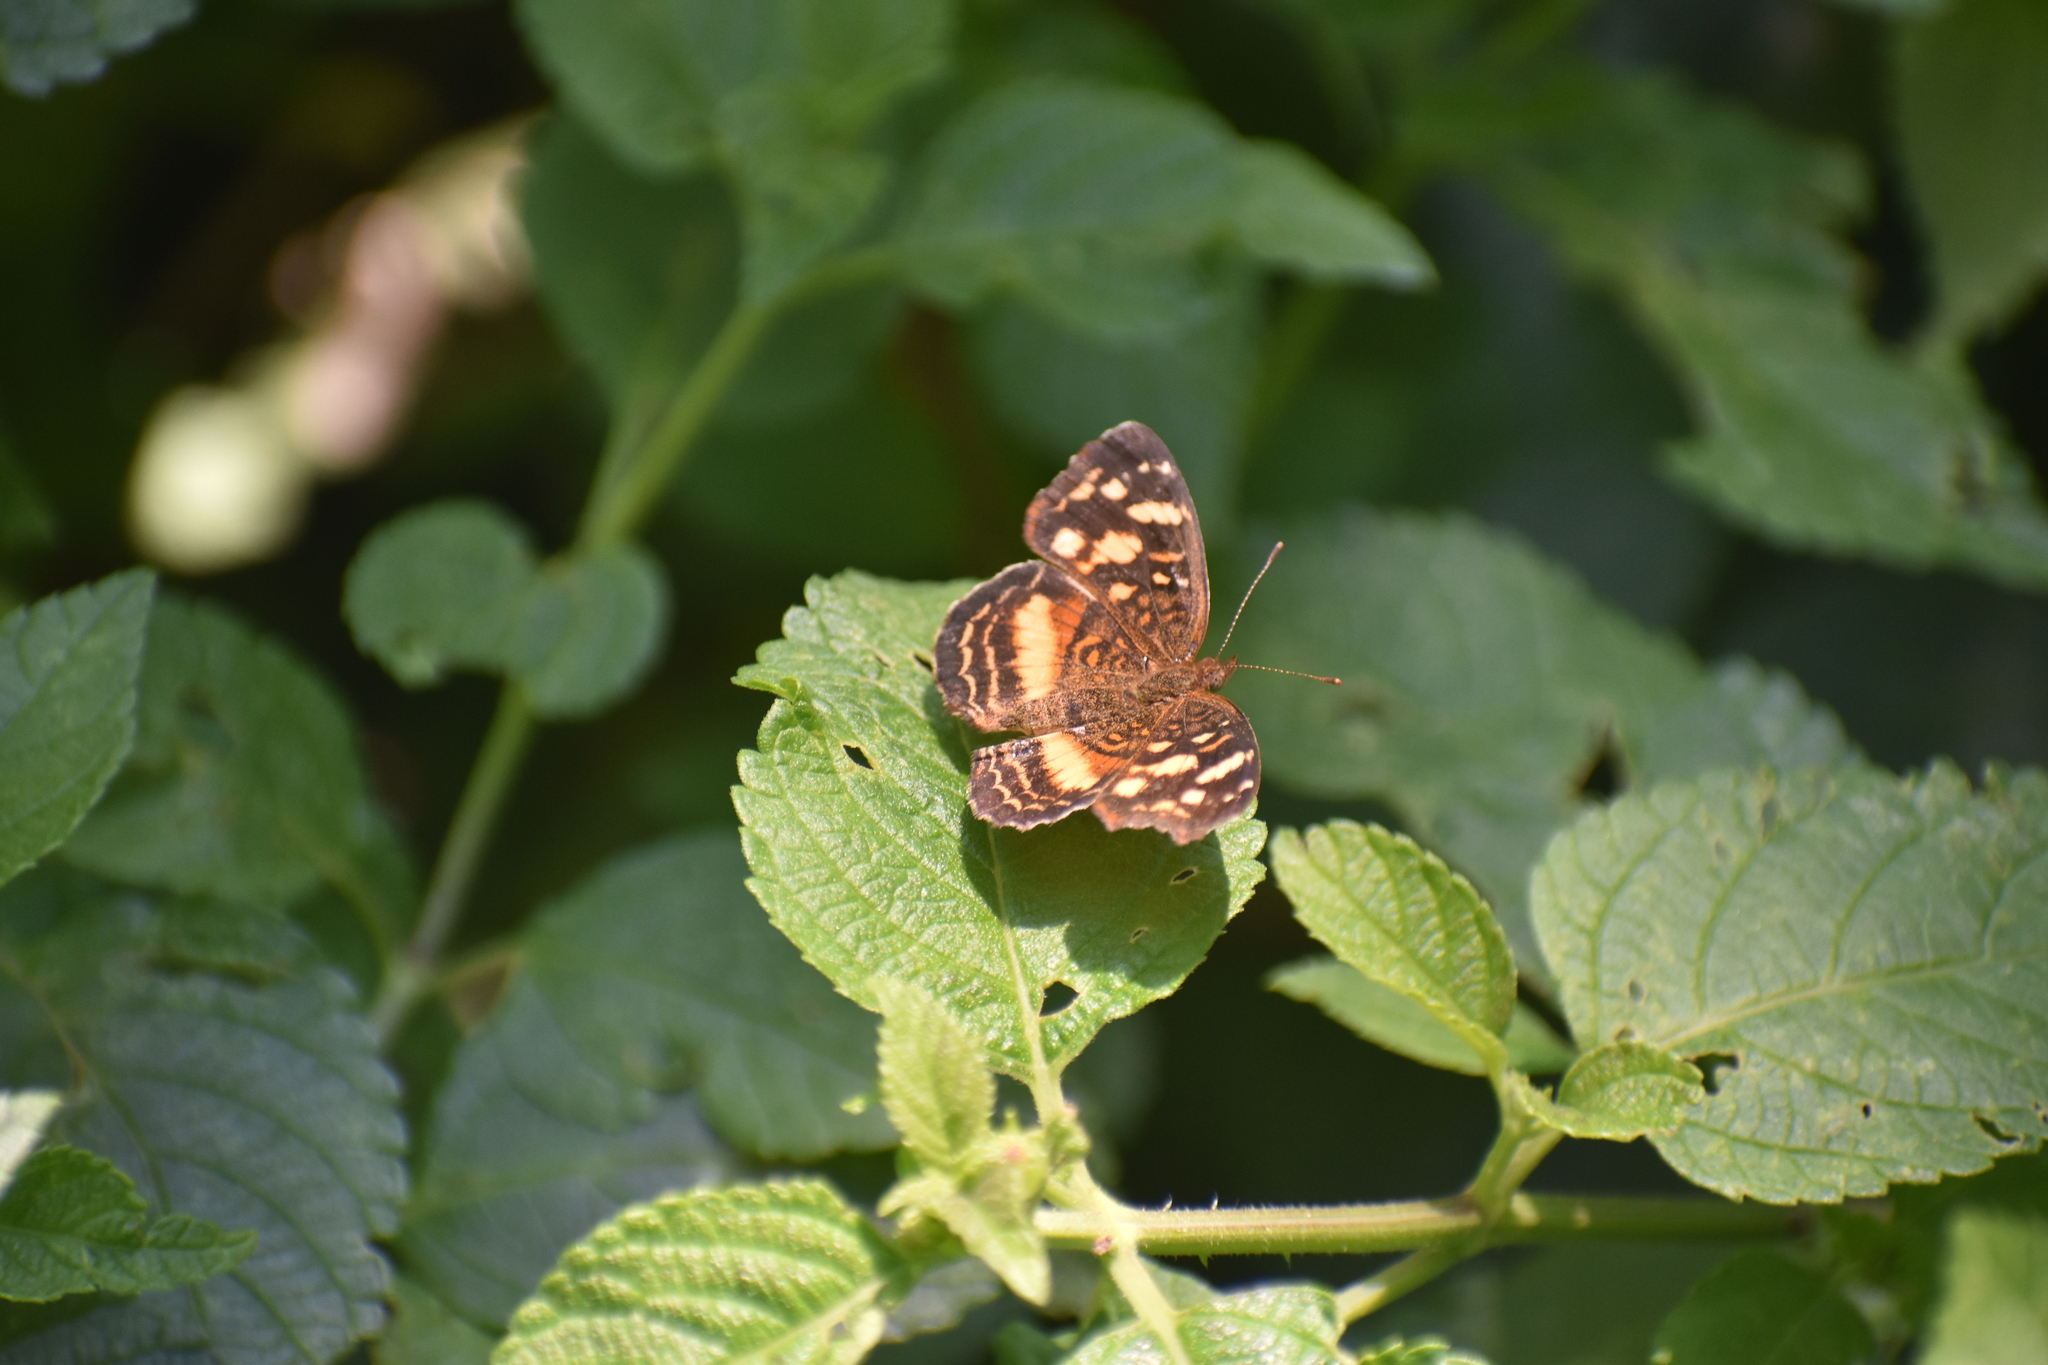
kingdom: Animalia
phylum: Arthropoda
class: Insecta
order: Lepidoptera
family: Nymphalidae
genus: Anthanassa
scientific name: Anthanassa drusilla
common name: Orange-patched crescent
